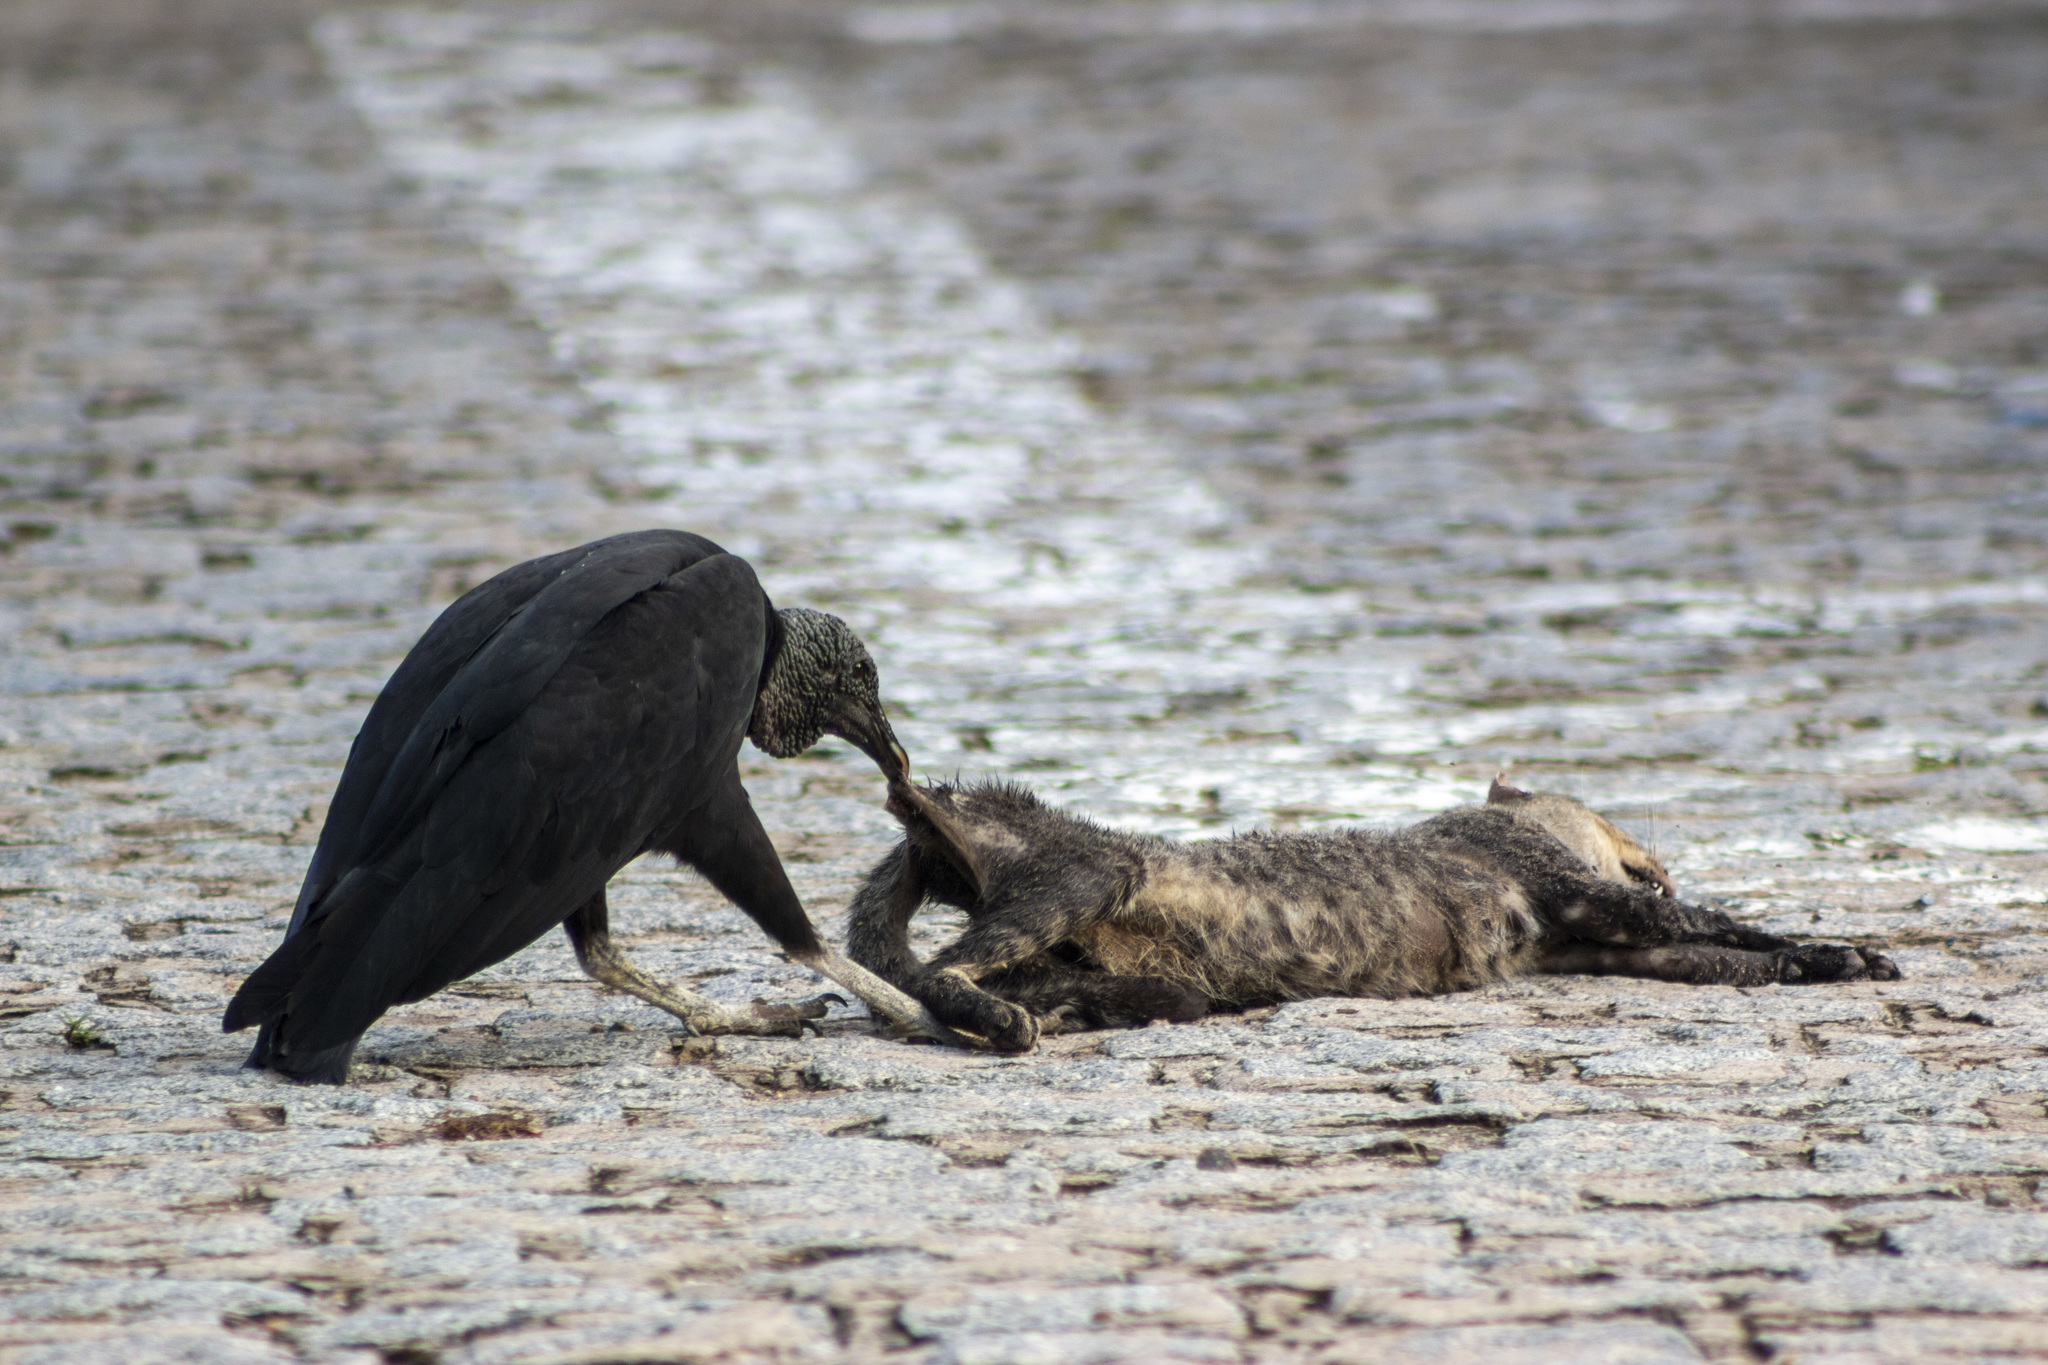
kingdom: Animalia
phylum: Chordata
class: Aves
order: Accipitriformes
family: Cathartidae
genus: Coragyps
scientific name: Coragyps atratus
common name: Black vulture
